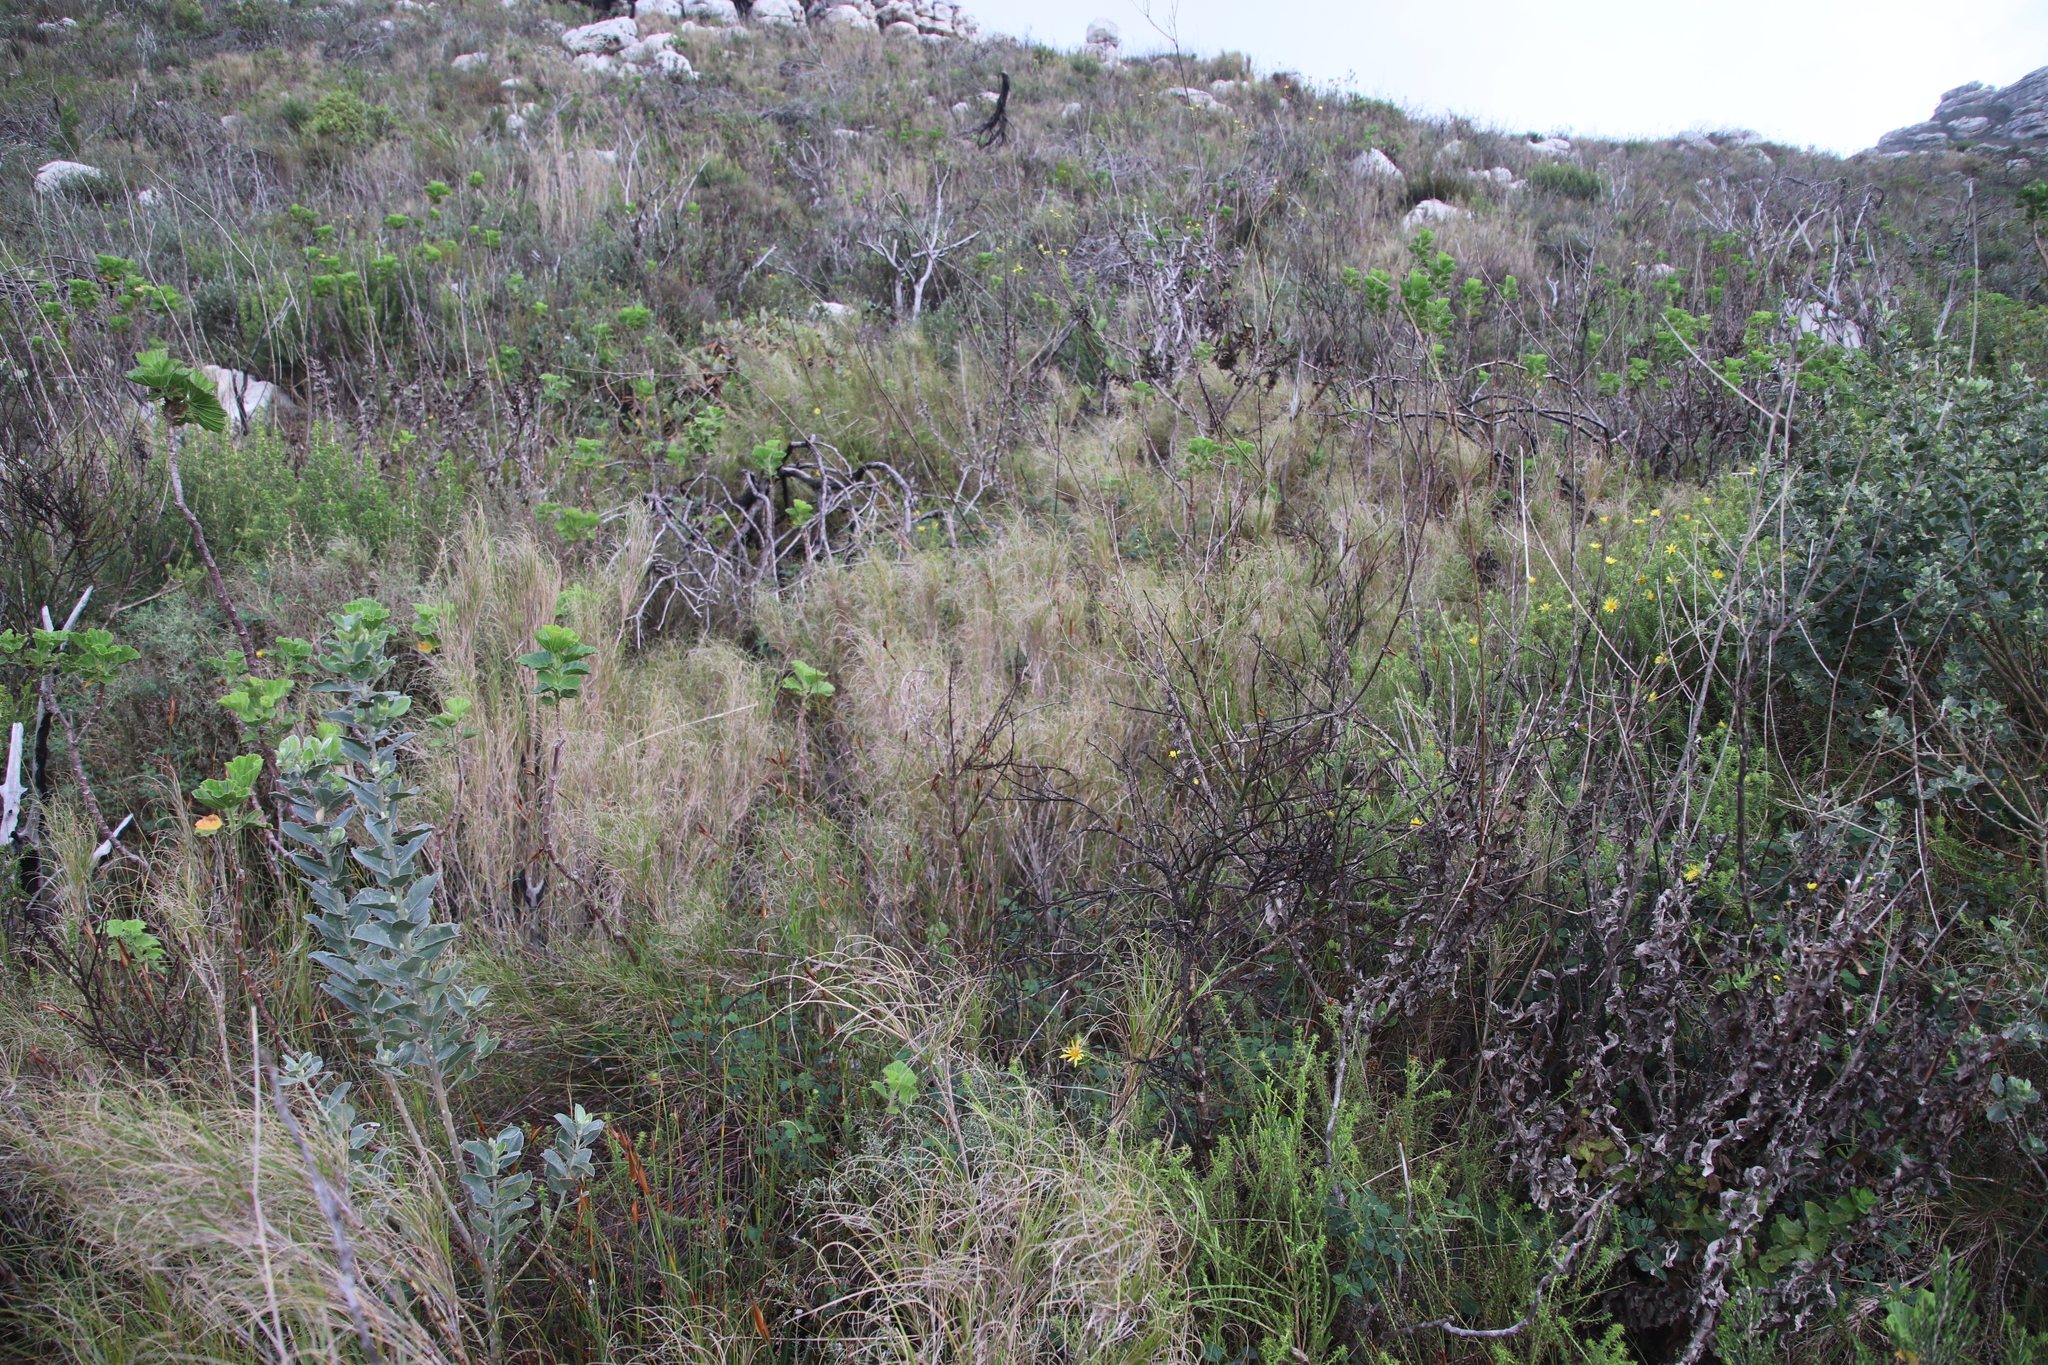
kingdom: Plantae
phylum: Tracheophyta
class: Liliopsida
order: Poales
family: Poaceae
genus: Pseudopentameris
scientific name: Pseudopentameris macrantha
